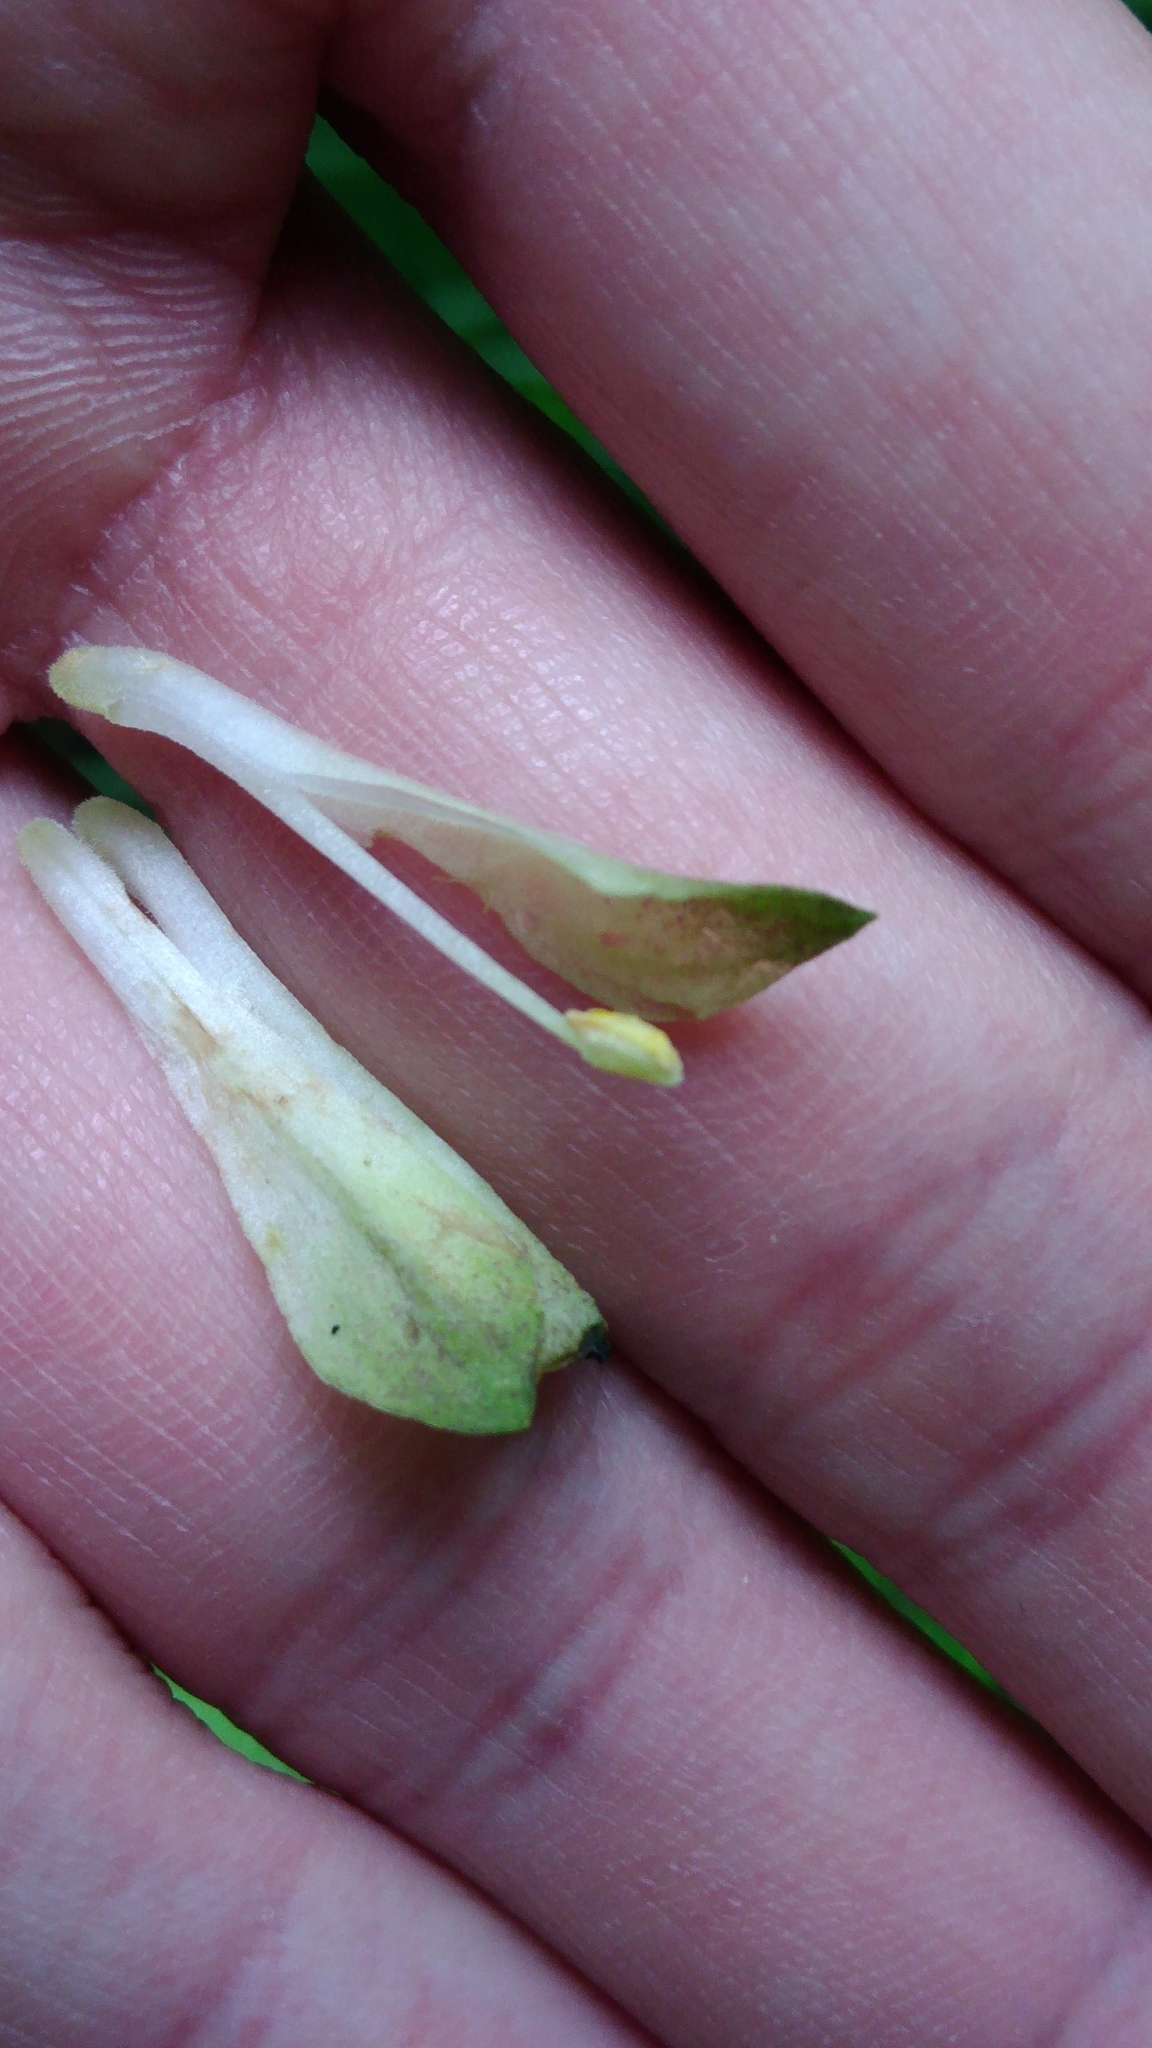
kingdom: Plantae
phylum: Tracheophyta
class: Liliopsida
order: Liliales
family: Colchicaceae
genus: Disporum
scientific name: Disporum sessile
